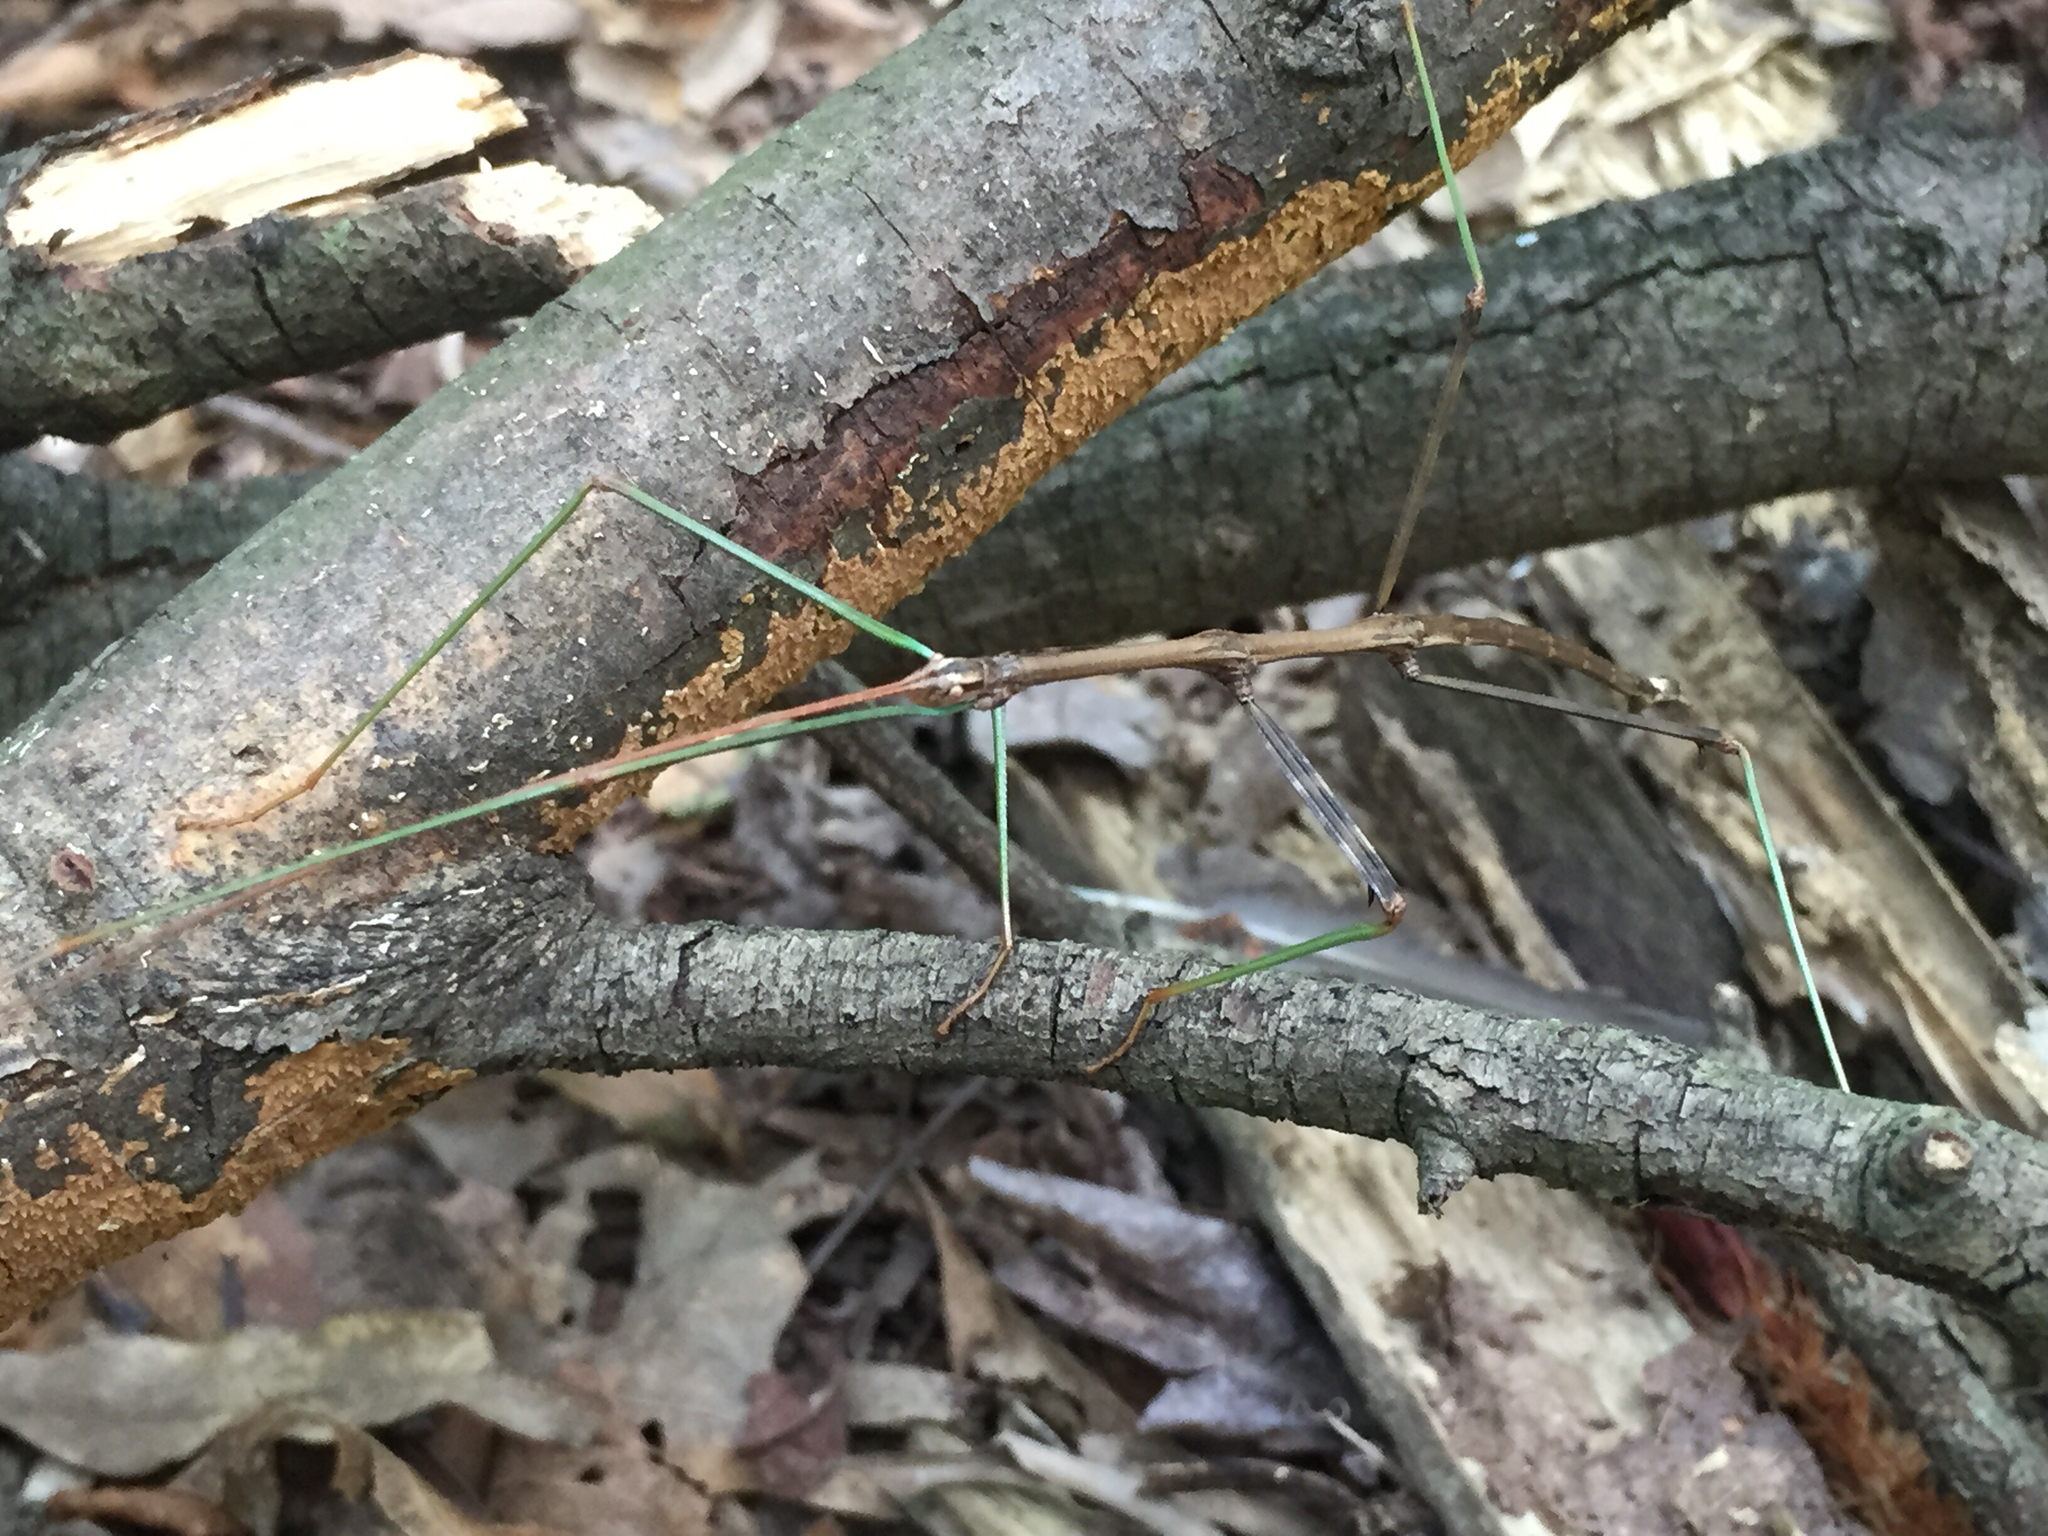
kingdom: Animalia
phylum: Arthropoda
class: Insecta
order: Phasmida
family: Diapheromeridae
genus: Diapheromera
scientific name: Diapheromera femorata
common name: Common american walkingstick
